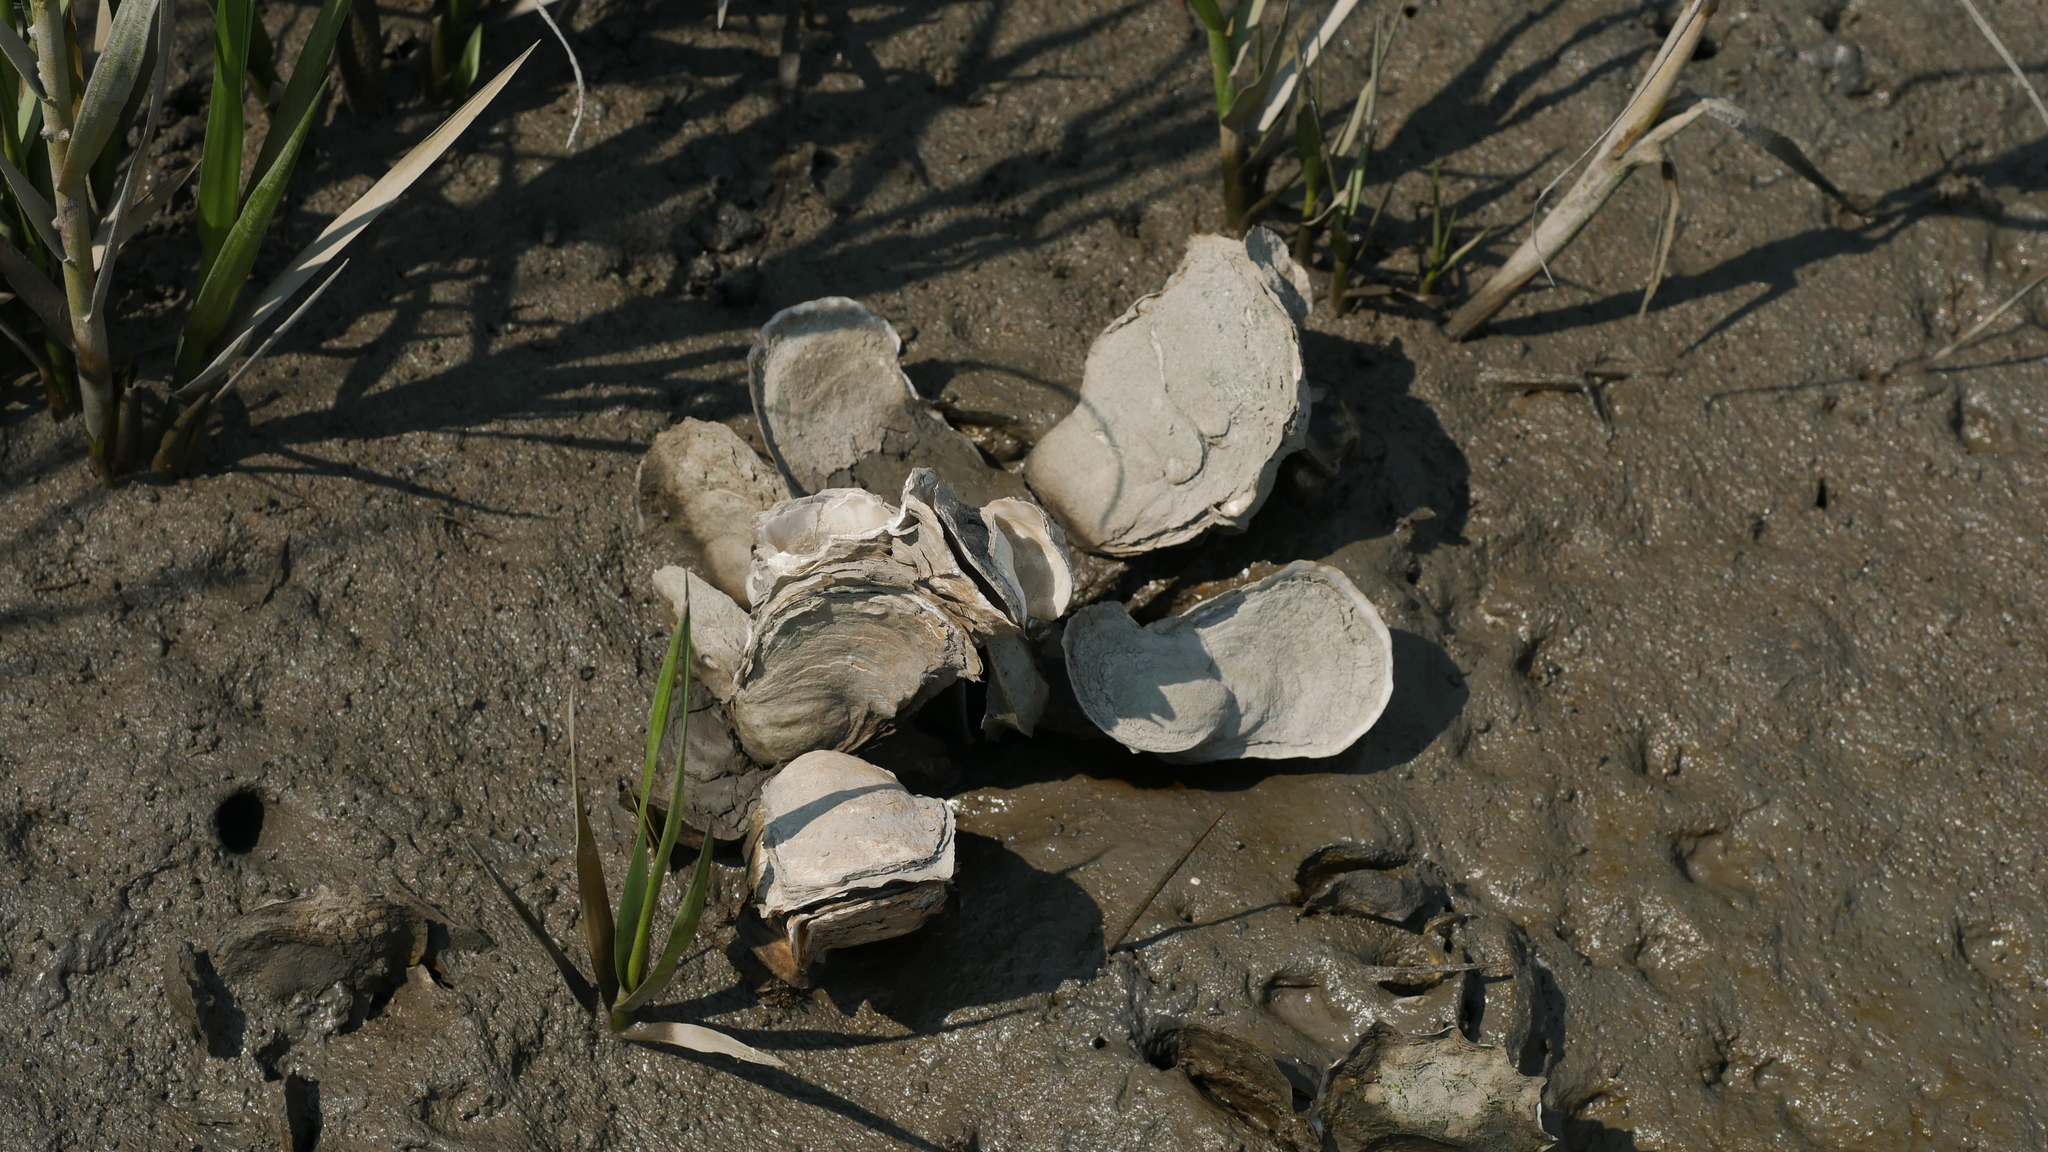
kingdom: Animalia
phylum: Mollusca
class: Bivalvia
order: Ostreida
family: Ostreidae
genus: Crassostrea
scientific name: Crassostrea virginica
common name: American oyster
